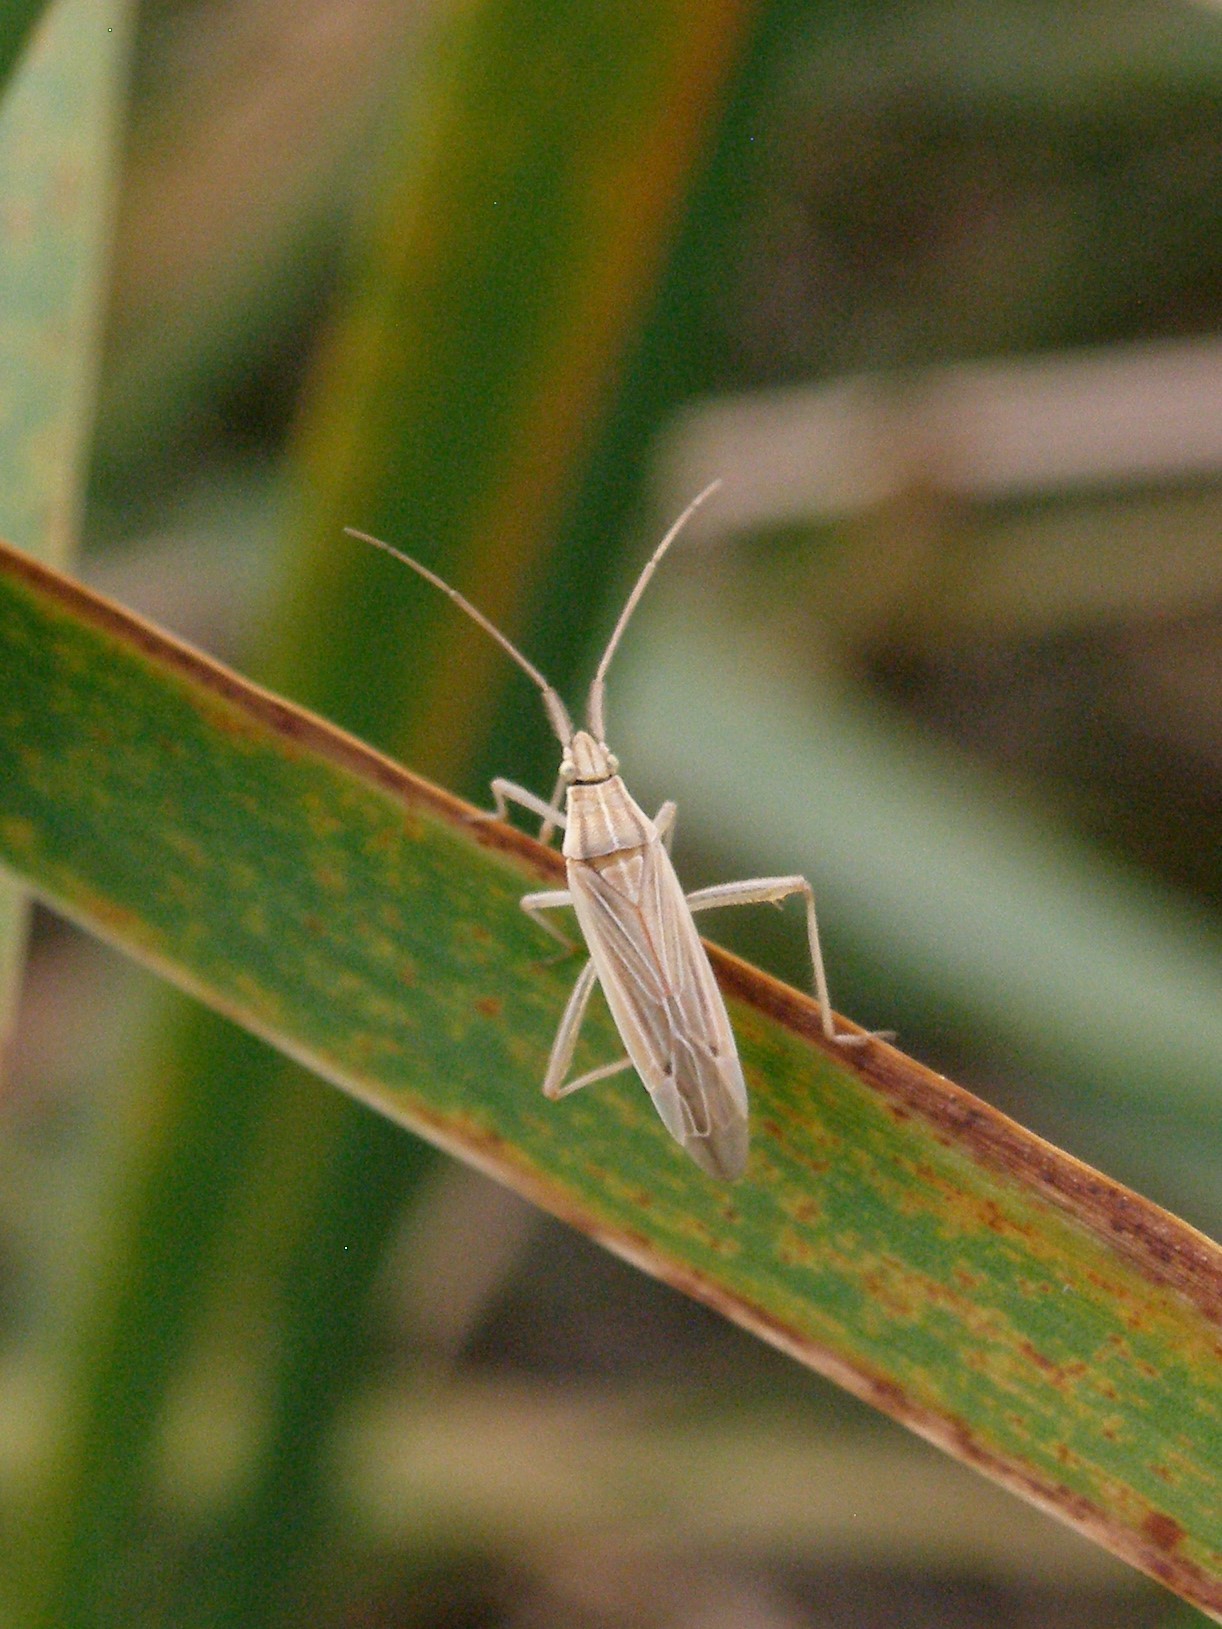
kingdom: Animalia
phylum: Arthropoda
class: Insecta
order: Hemiptera
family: Miridae
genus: Stenodema
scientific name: Stenodema calcarata
